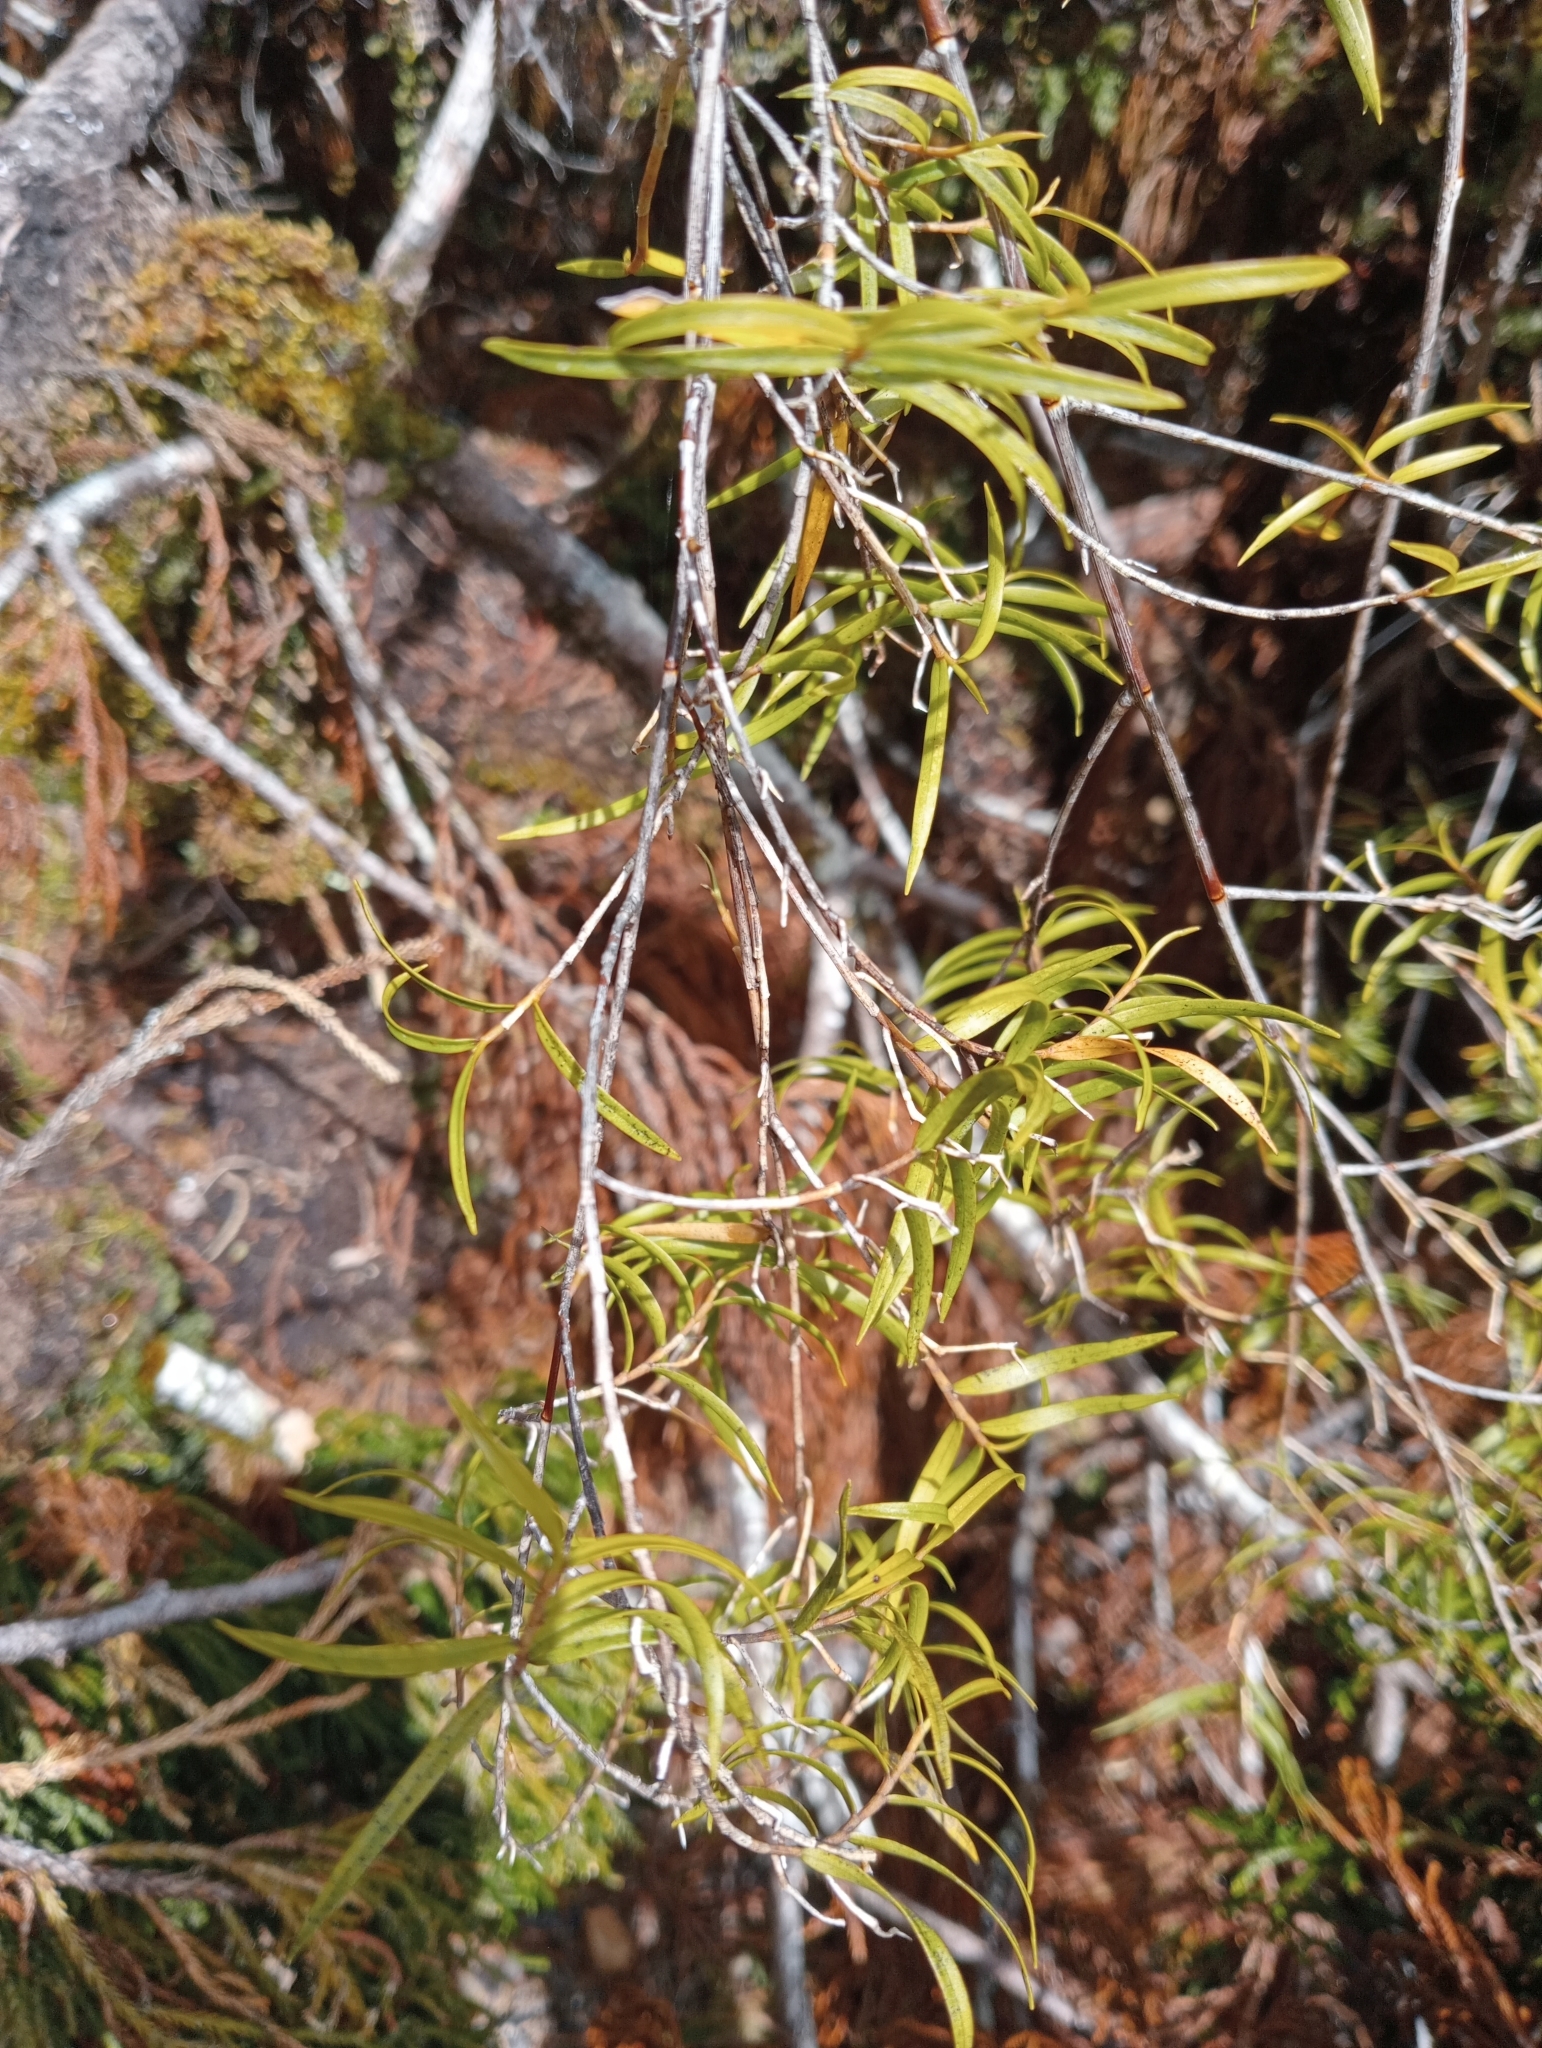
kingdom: Plantae
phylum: Tracheophyta
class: Liliopsida
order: Asparagales
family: Orchidaceae
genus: Dendrobium
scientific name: Dendrobium cunninghamii
